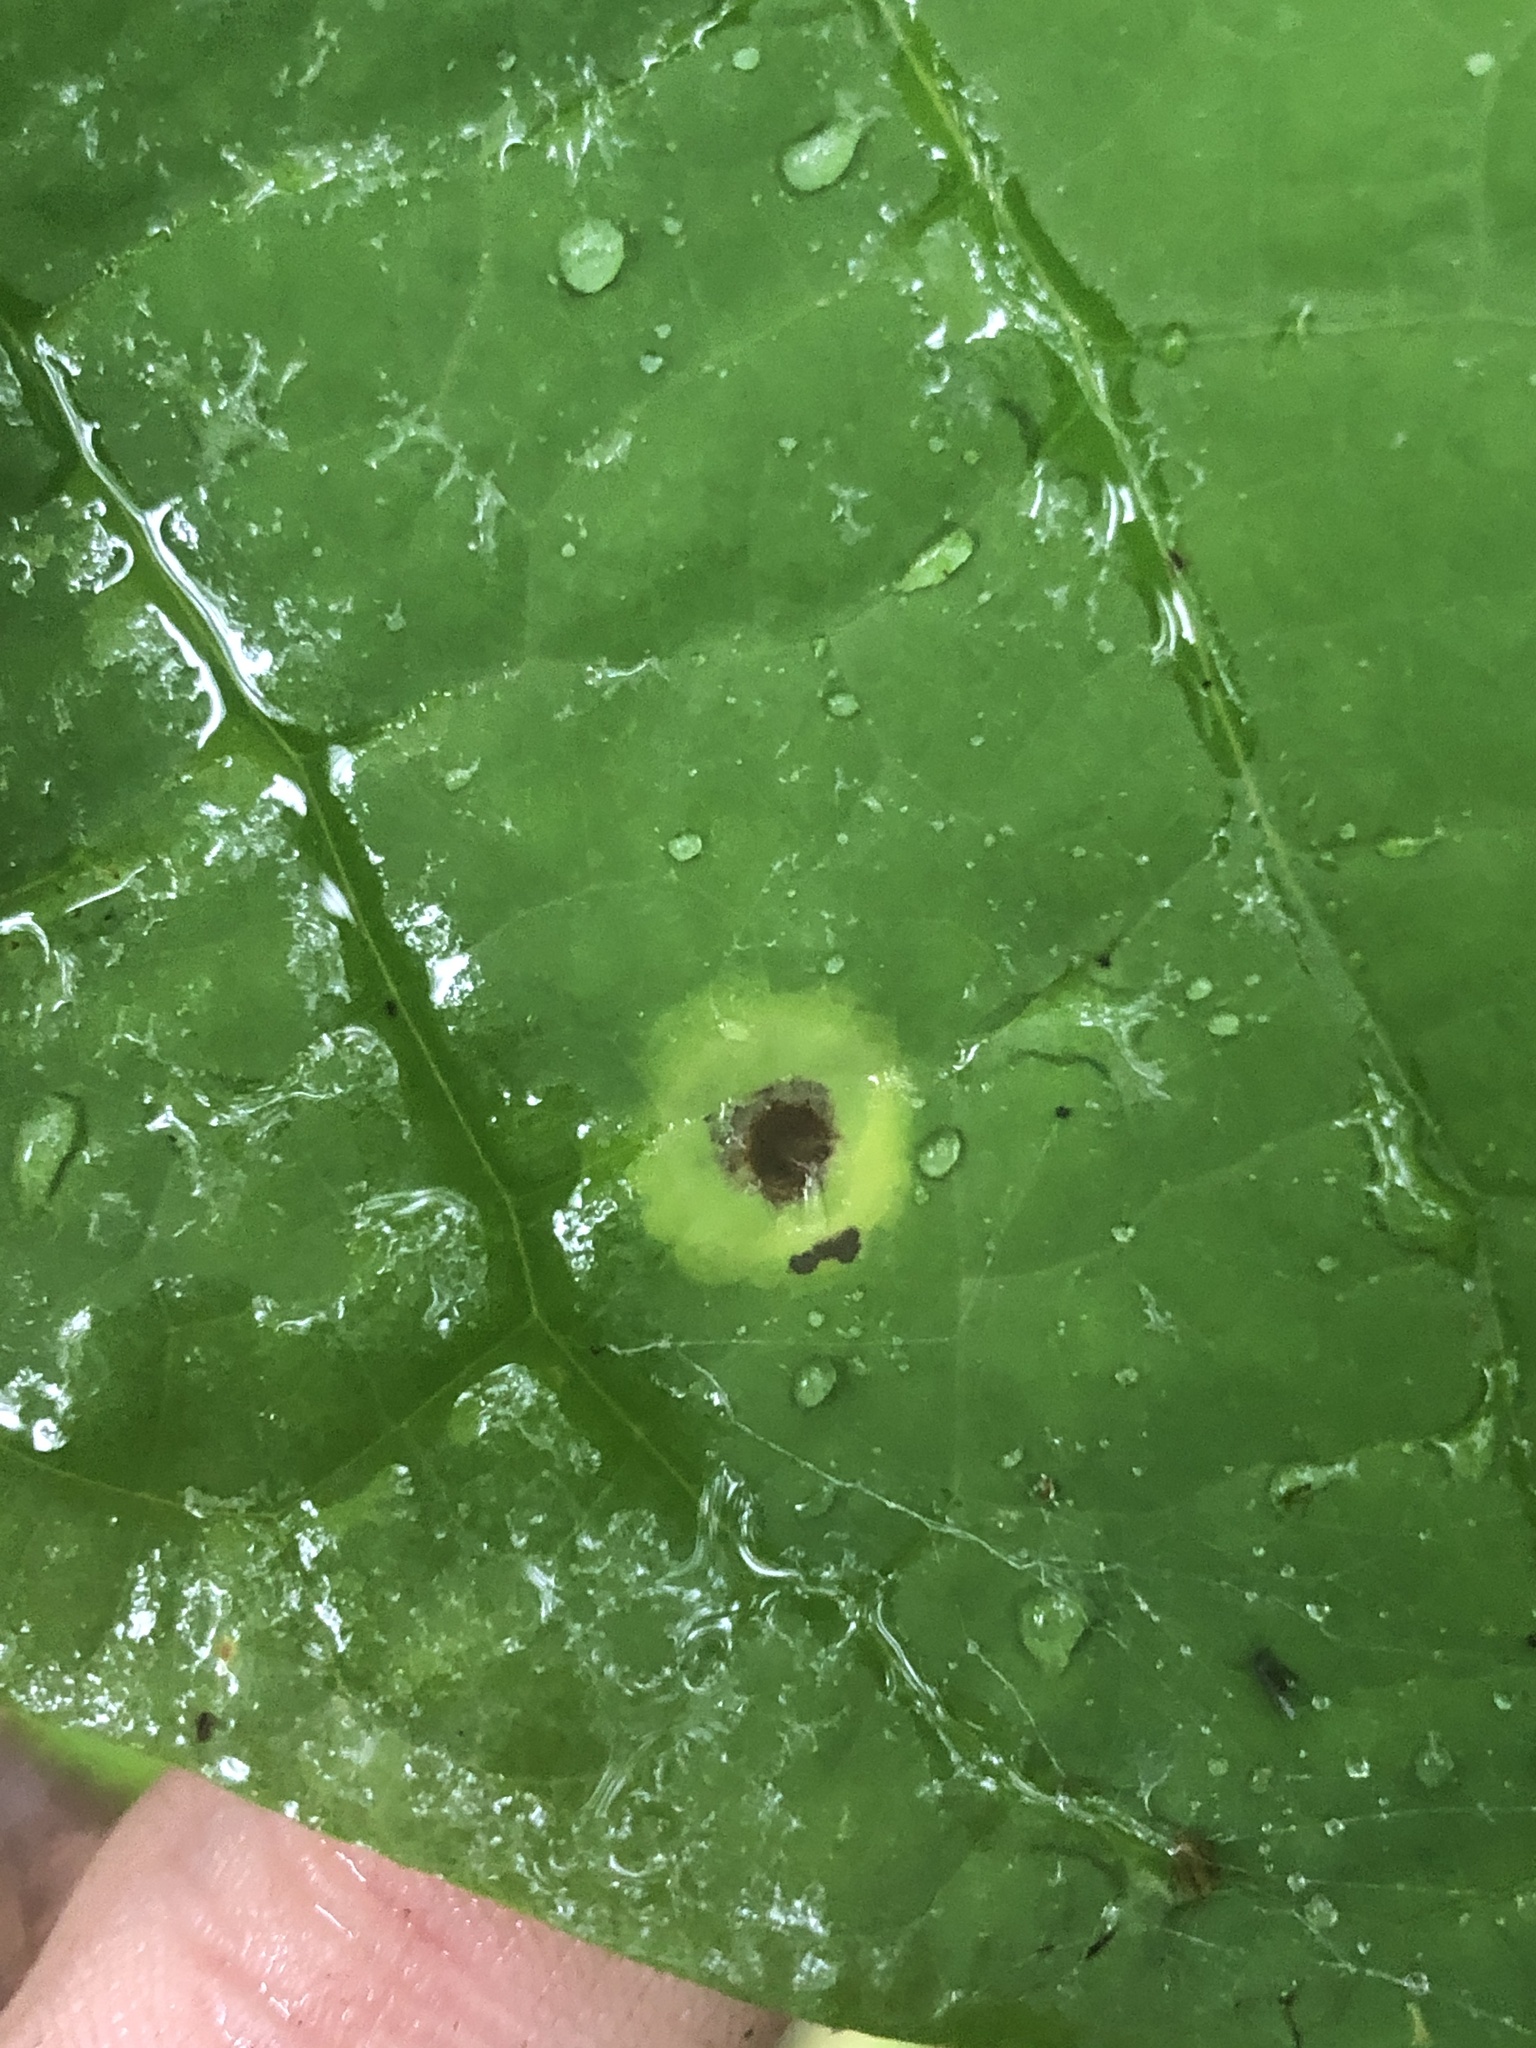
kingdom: Animalia
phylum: Arthropoda
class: Insecta
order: Diptera
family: Cecidomyiidae
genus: Resseliella
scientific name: Resseliella liriodendri
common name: Tulip tree leaf spot gall midge
